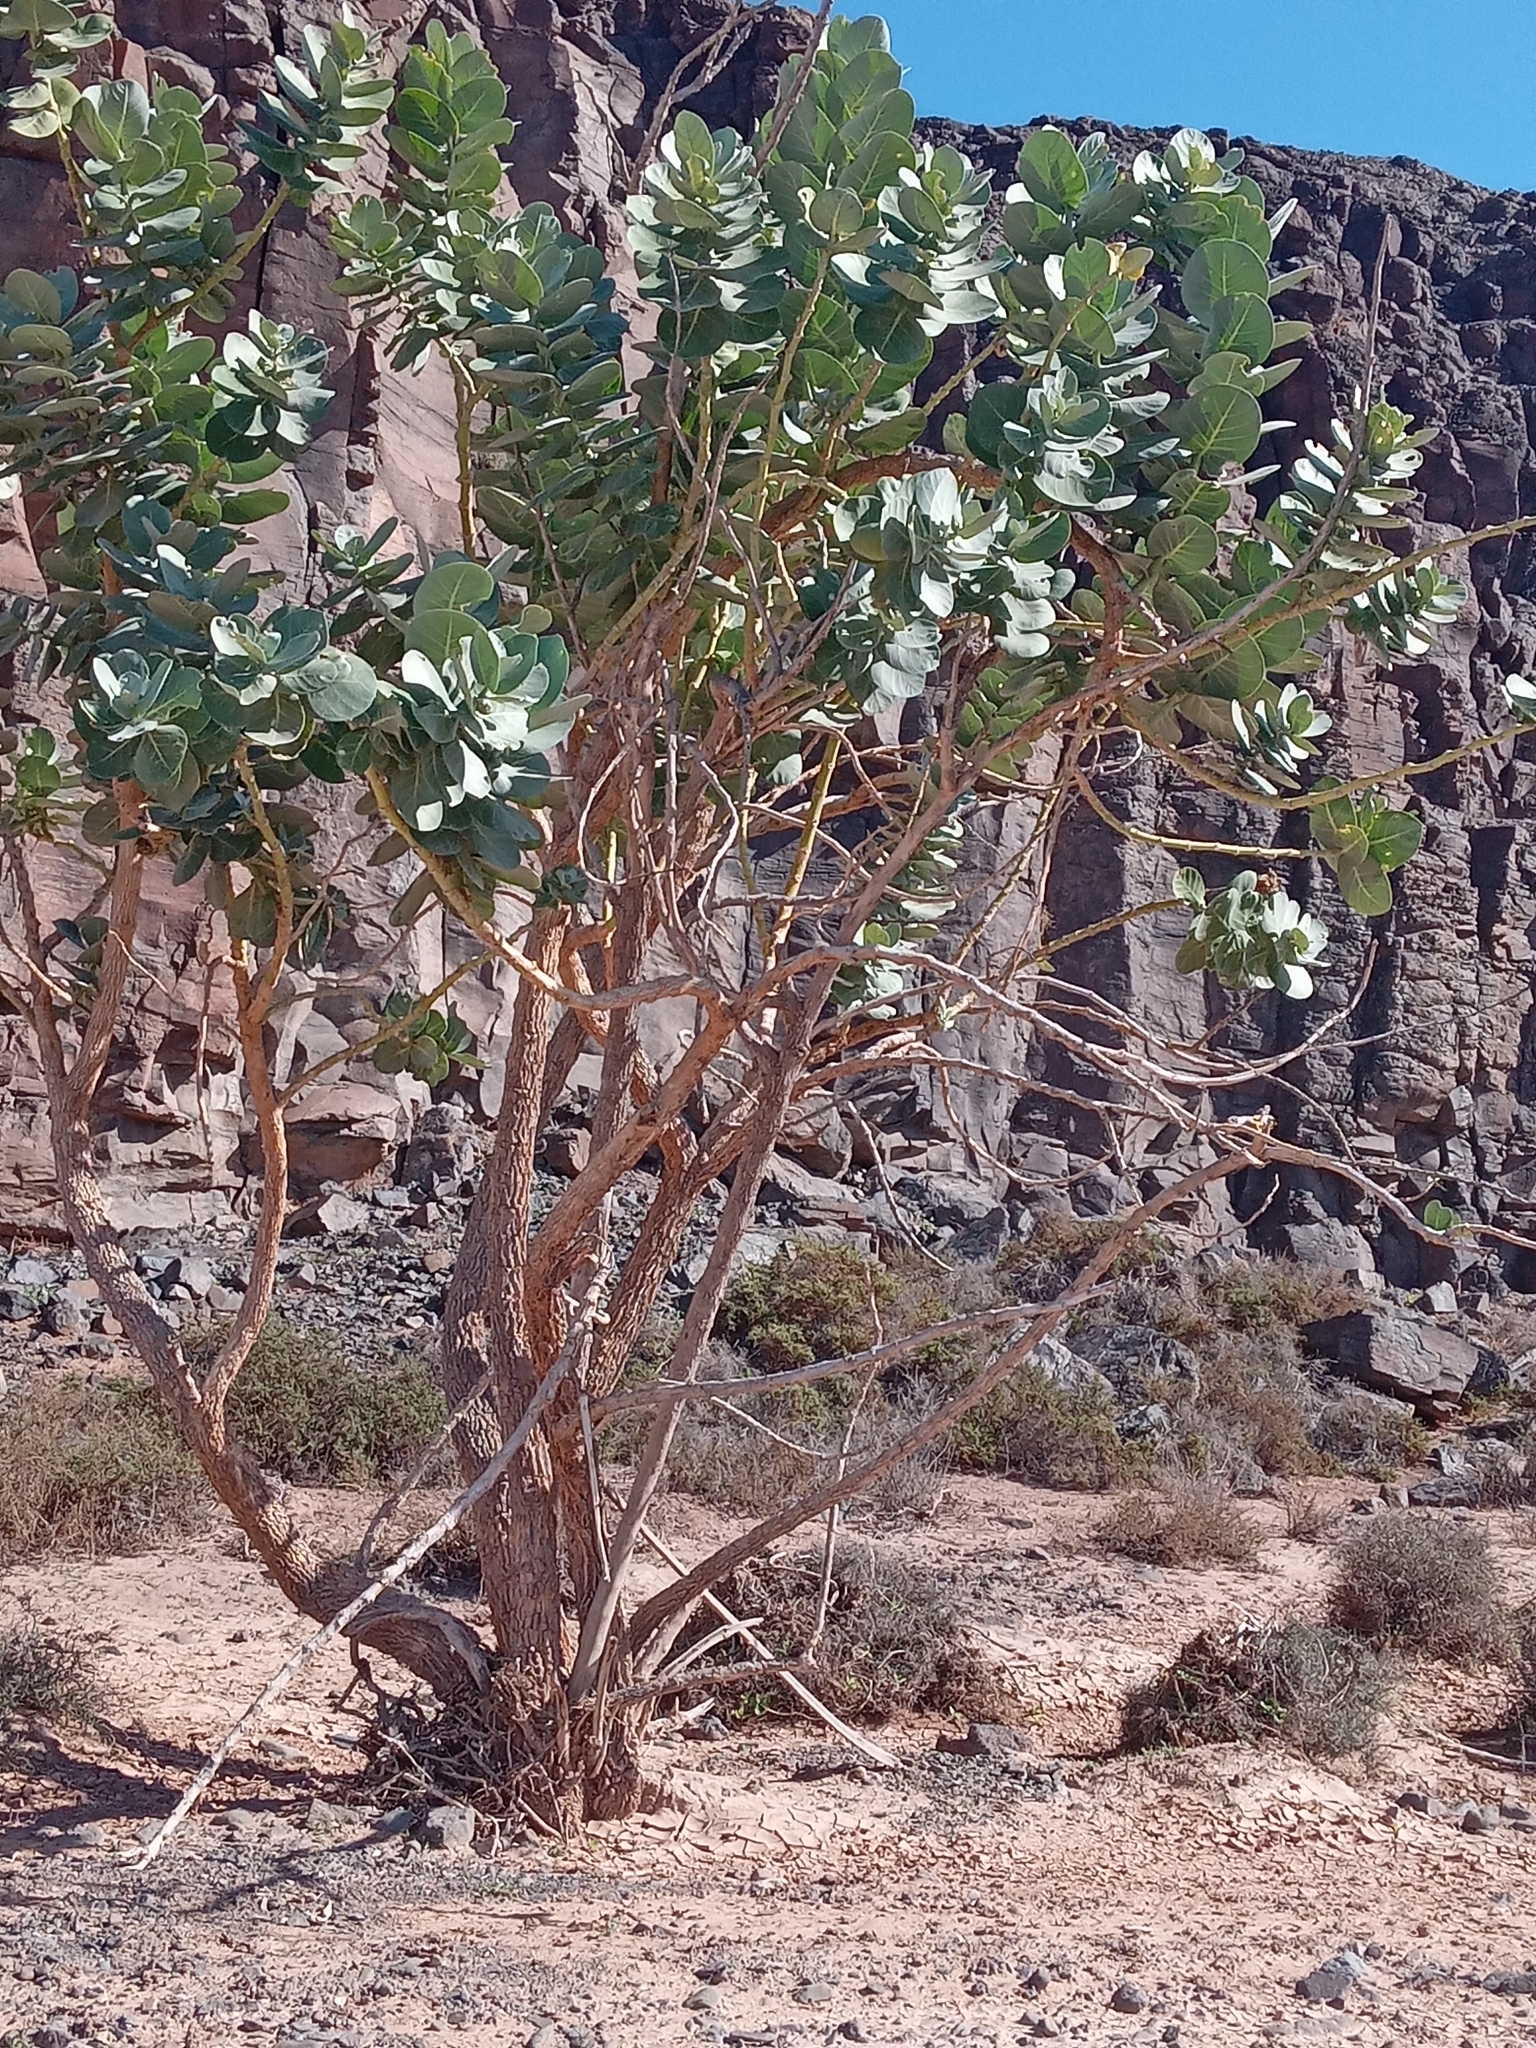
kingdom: Plantae
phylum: Tracheophyta
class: Magnoliopsida
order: Gentianales
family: Apocynaceae
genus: Calotropis
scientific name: Calotropis procera
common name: Roostertree
